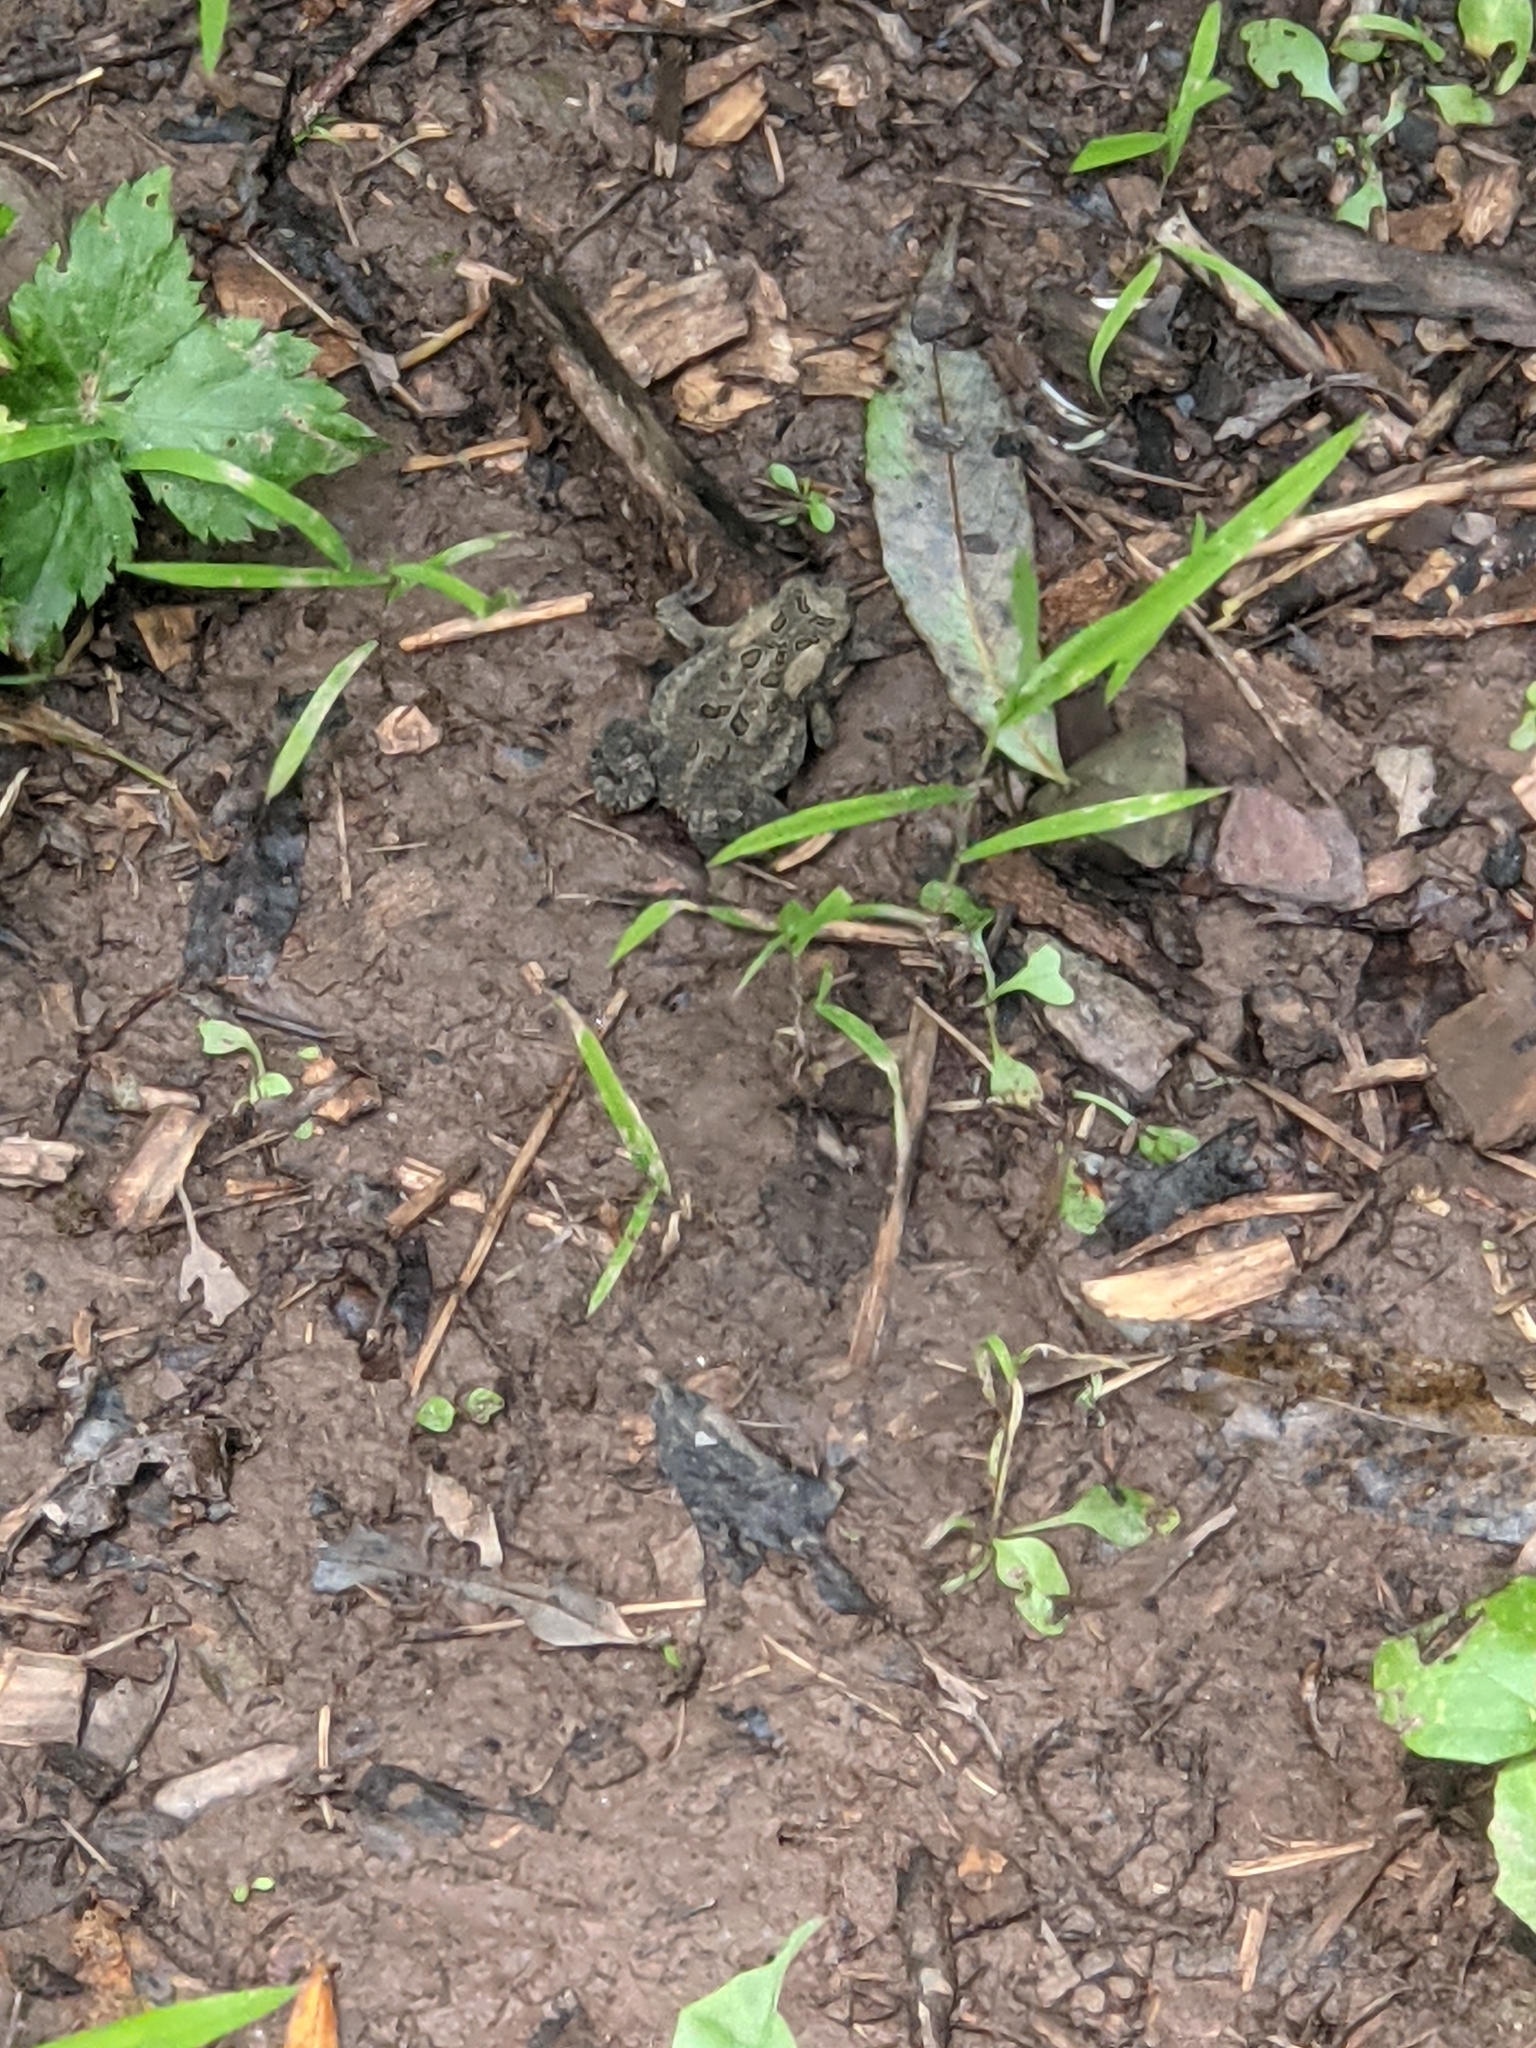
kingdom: Animalia
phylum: Chordata
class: Amphibia
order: Anura
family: Bufonidae
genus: Anaxyrus
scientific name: Anaxyrus americanus
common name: American toad
